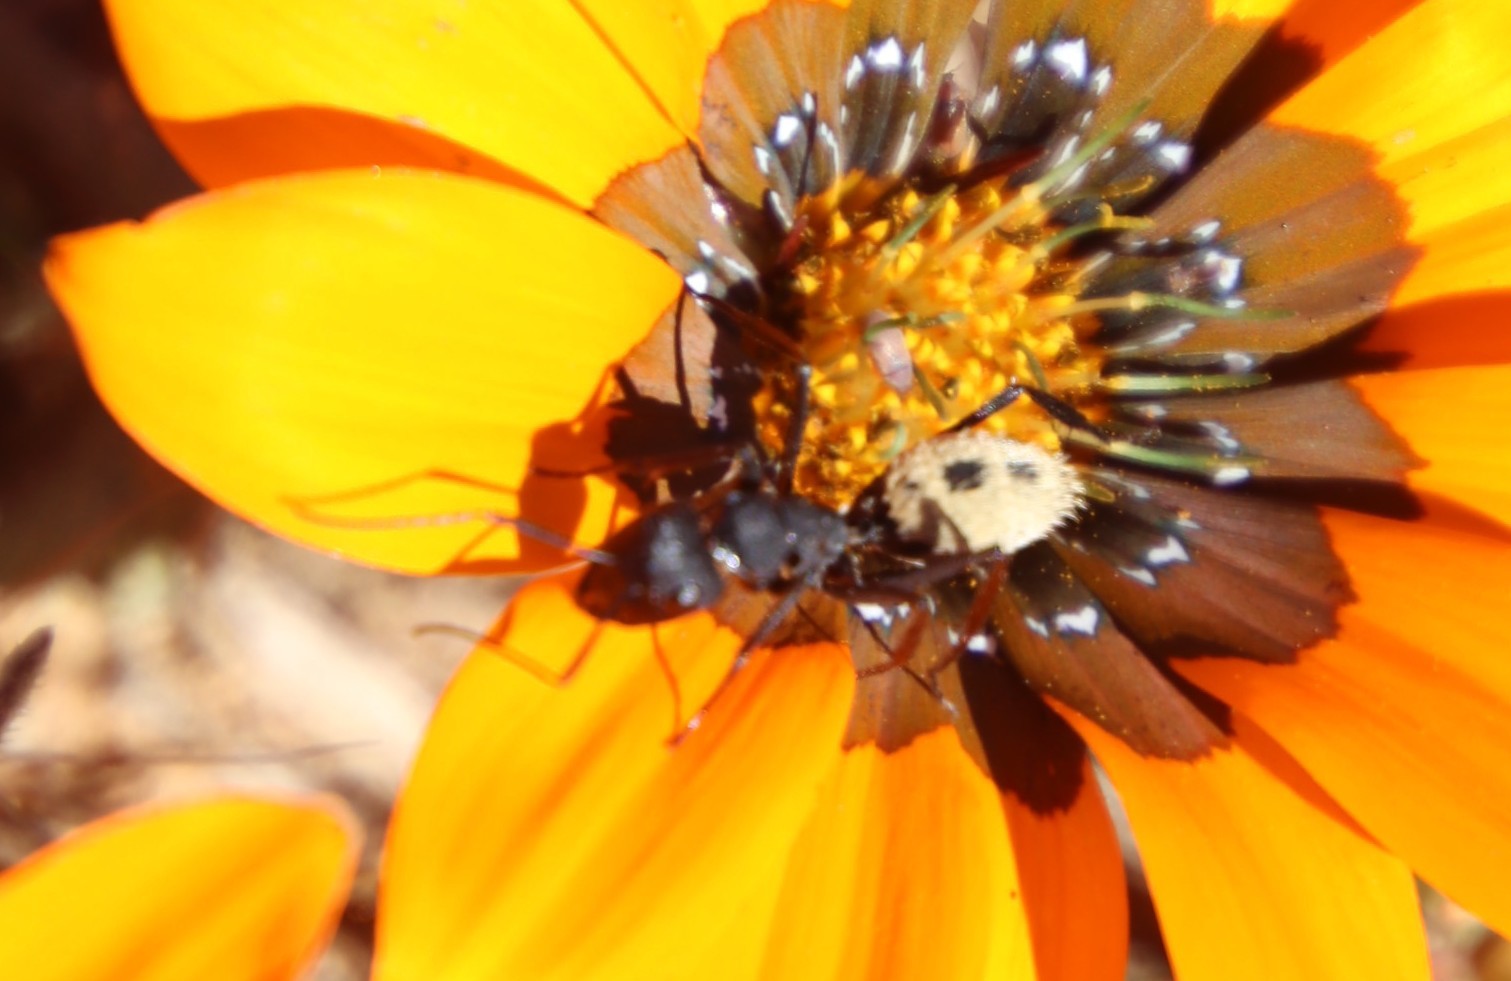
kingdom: Animalia
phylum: Arthropoda
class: Insecta
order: Hymenoptera
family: Formicidae
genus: Camponotus
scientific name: Camponotus fulvopilosus
